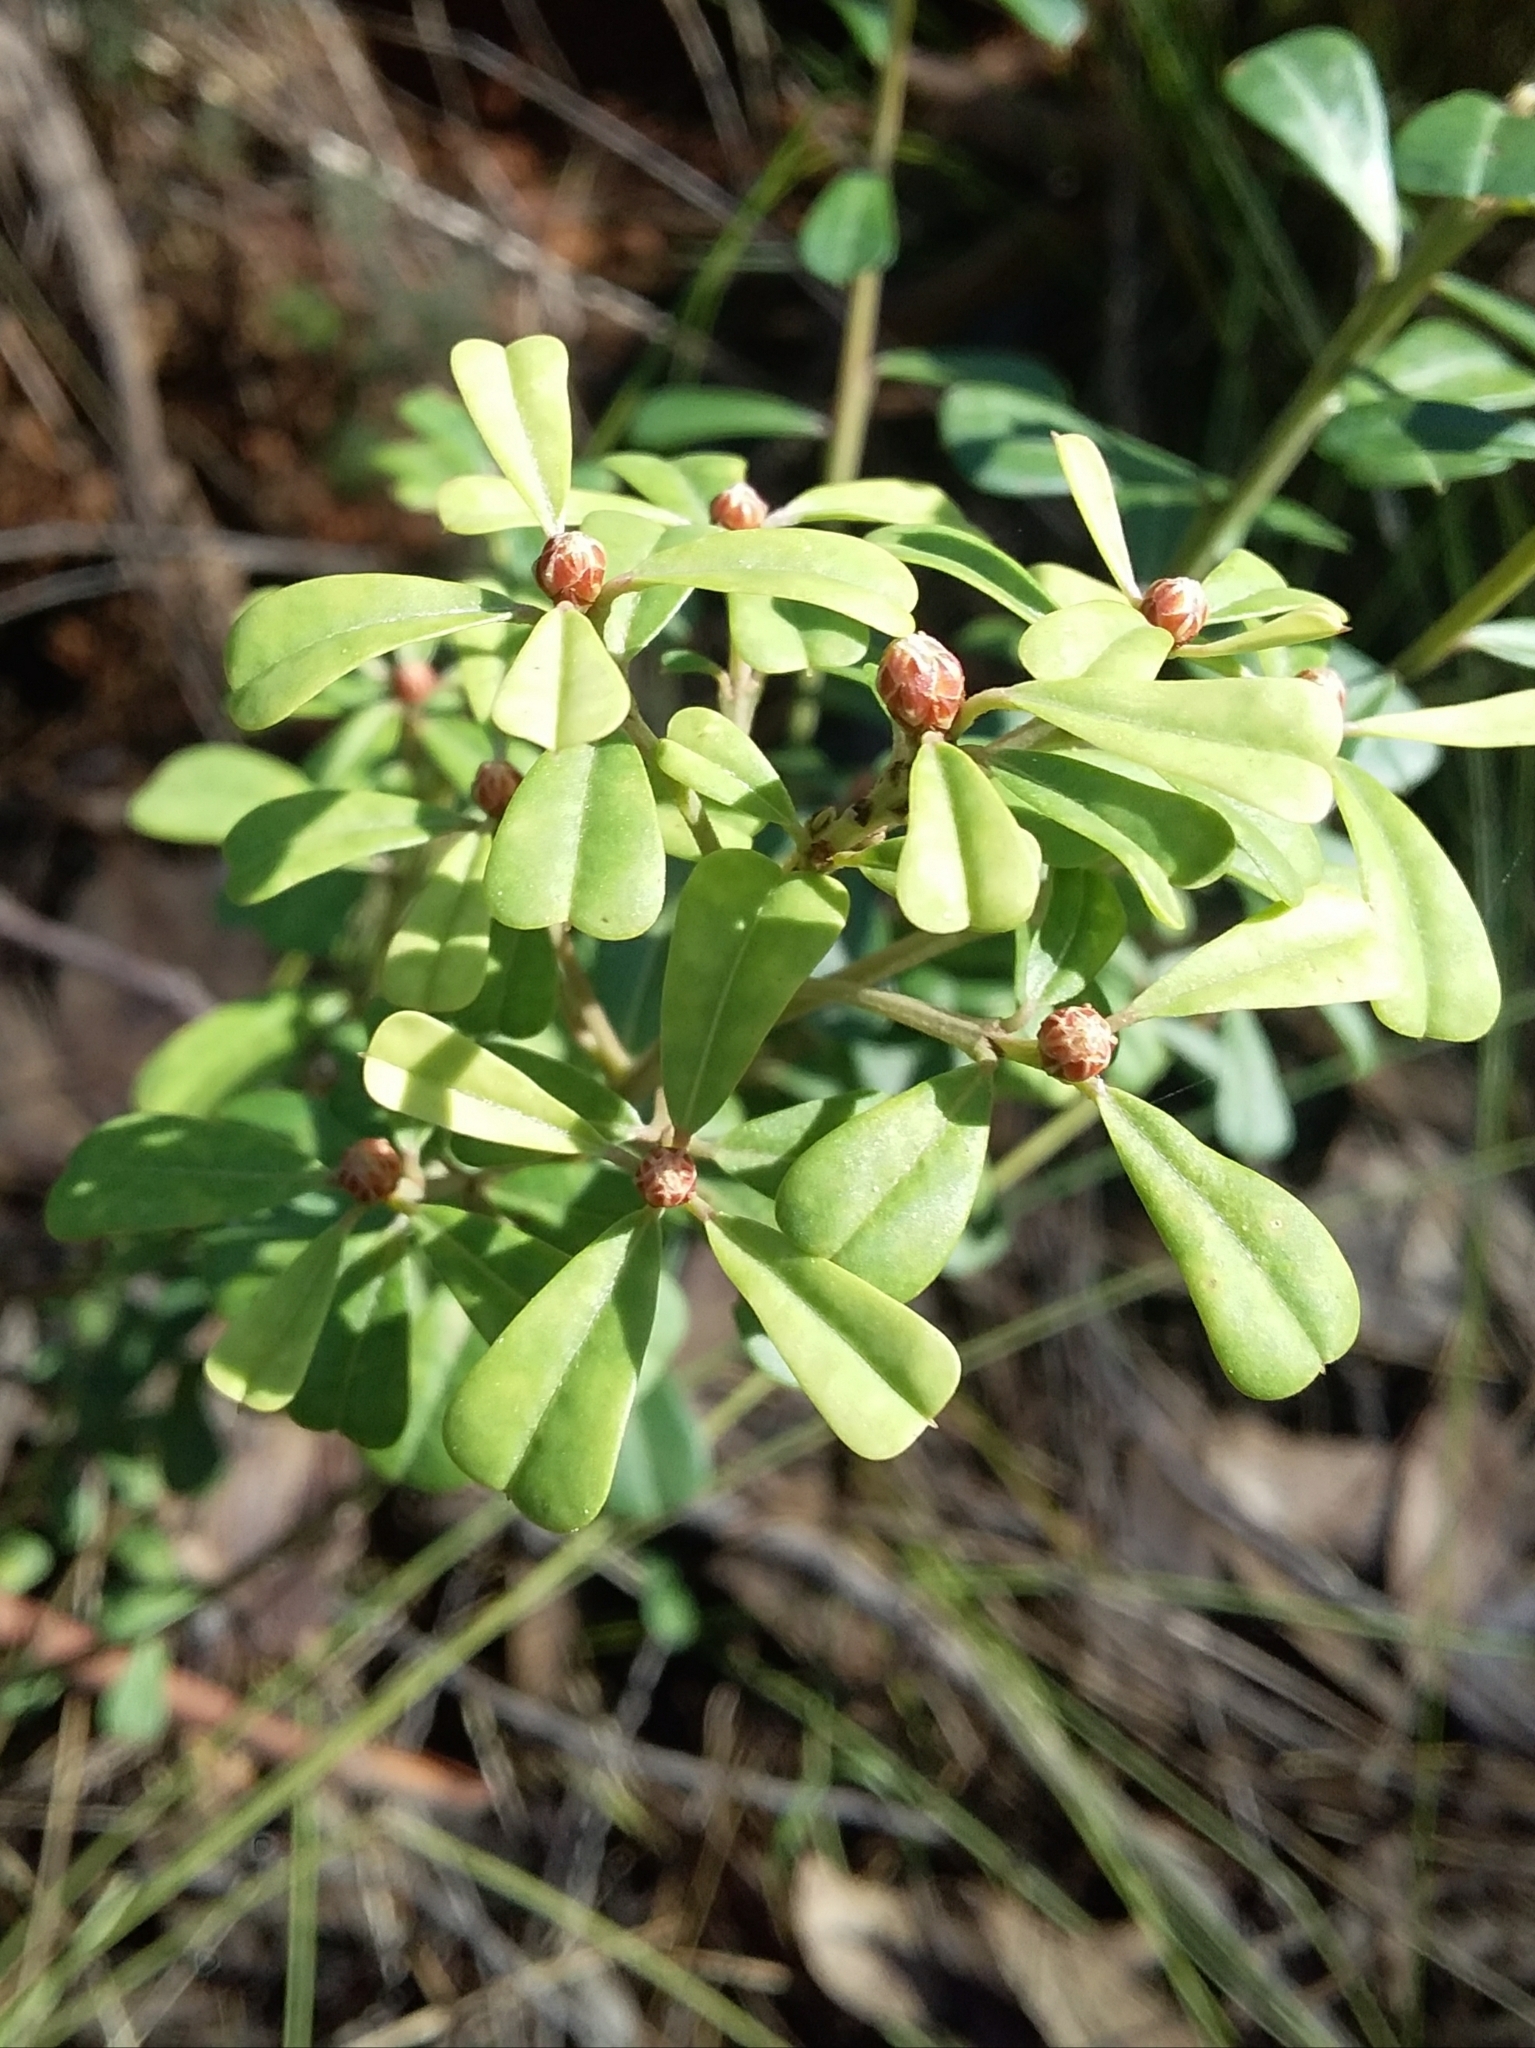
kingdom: Plantae
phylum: Tracheophyta
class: Magnoliopsida
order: Fabales
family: Fabaceae
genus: Pultenaea
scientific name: Pultenaea daphnoides
